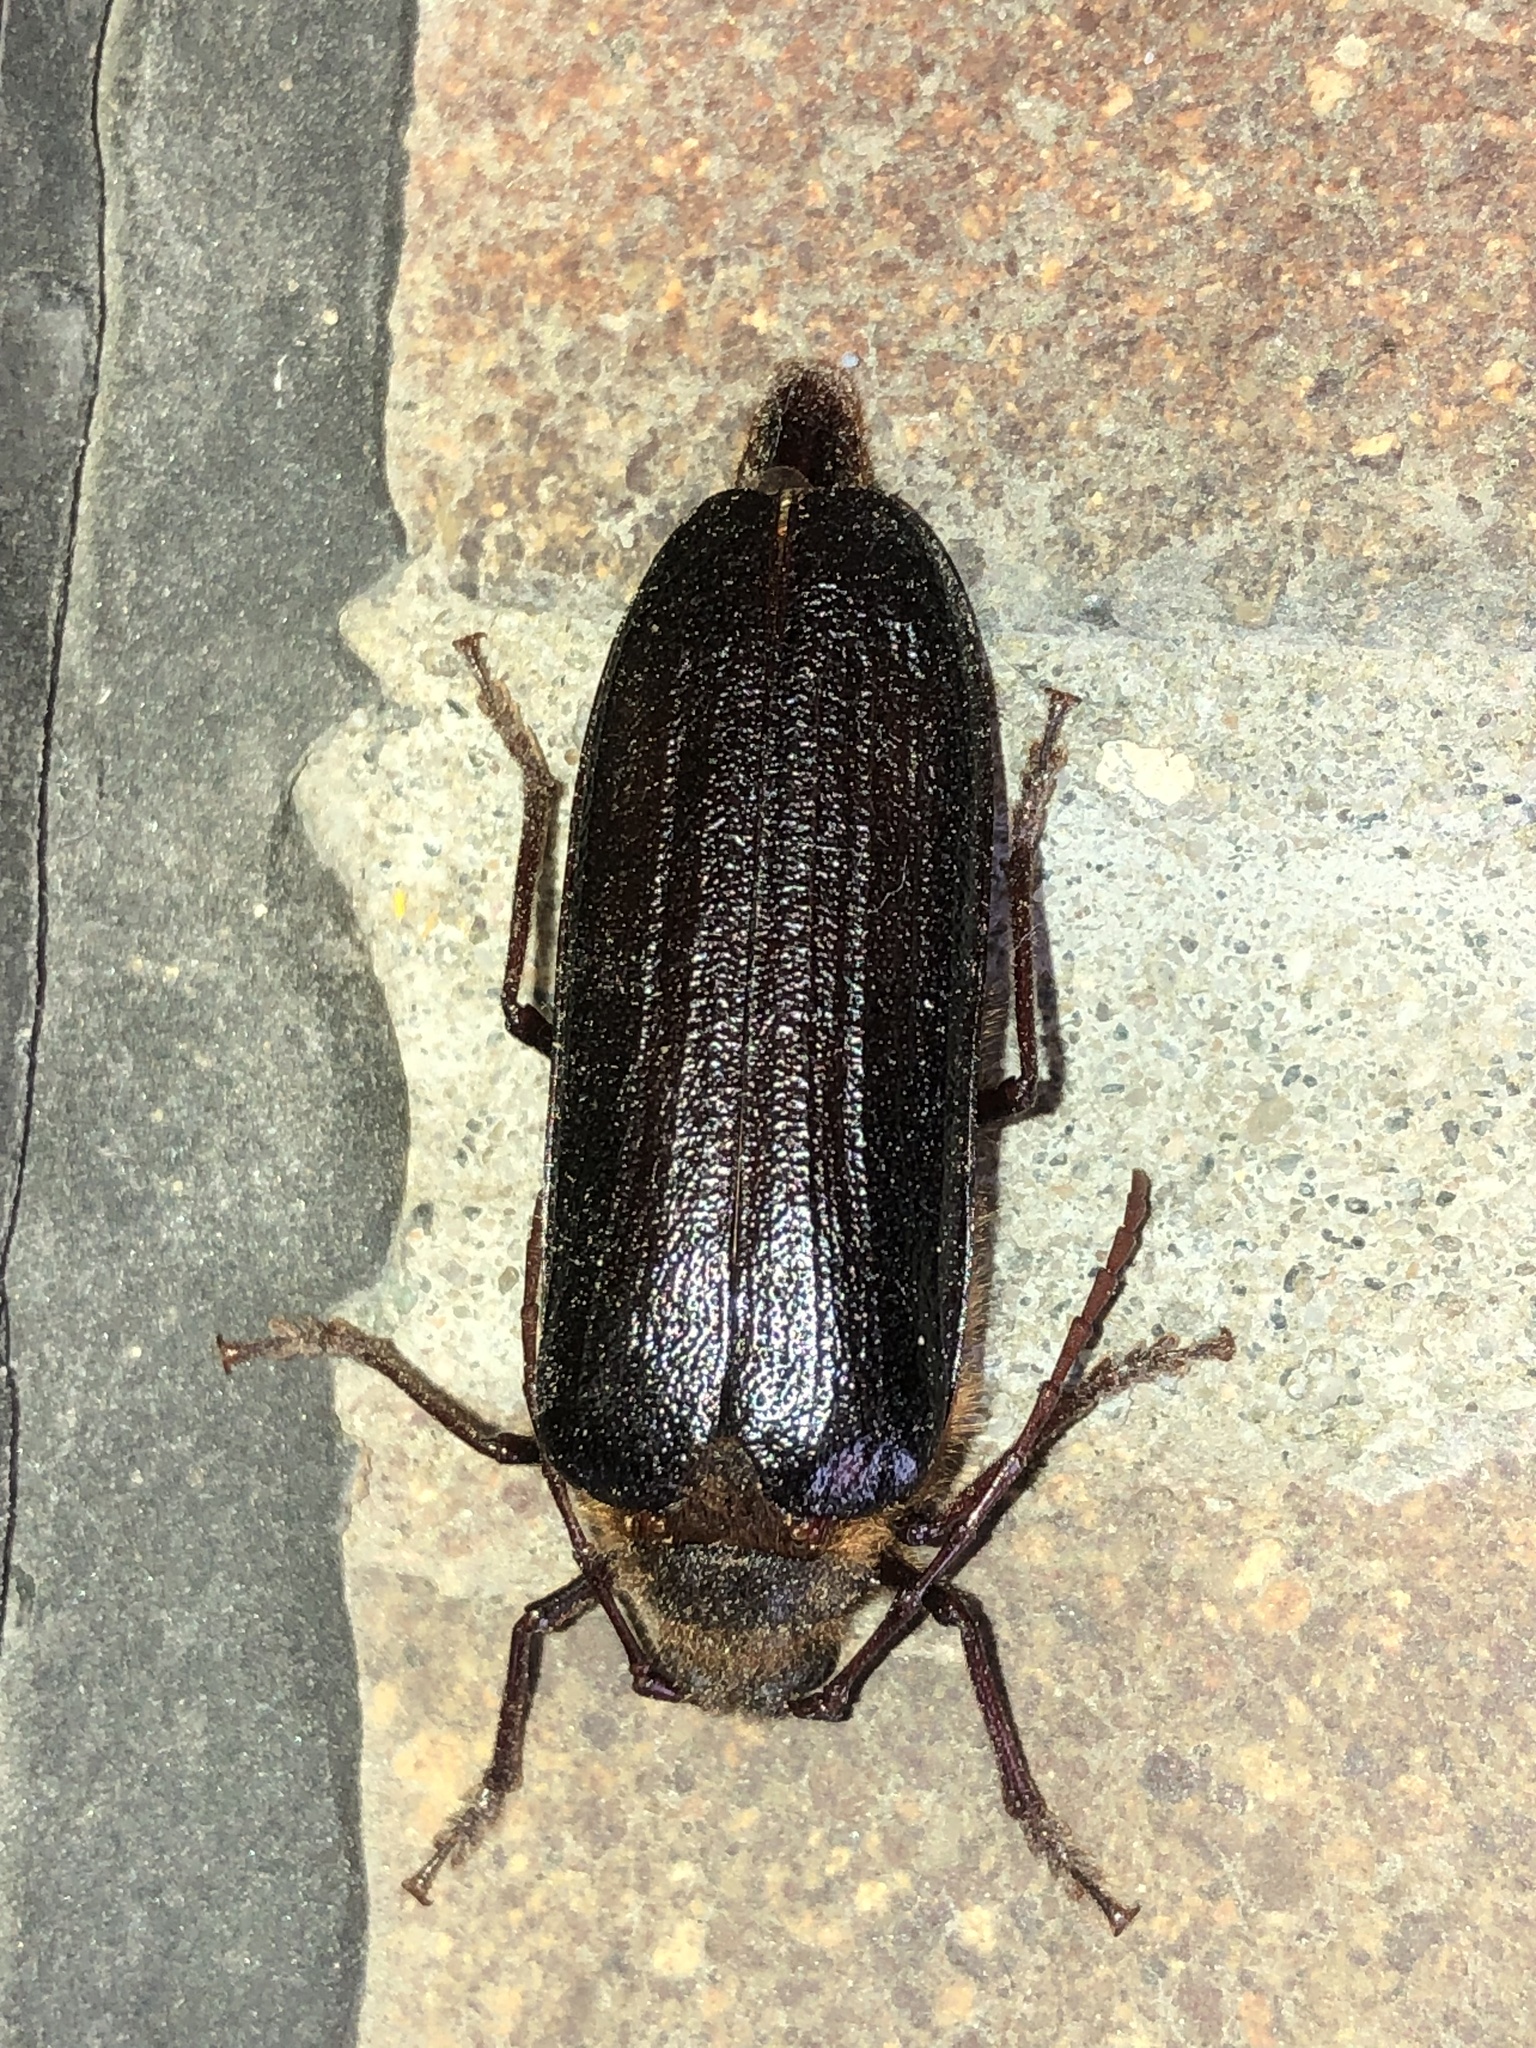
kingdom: Animalia
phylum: Arthropoda
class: Insecta
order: Coleoptera
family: Cerambycidae
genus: Tragosoma
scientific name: Tragosoma harrisii
